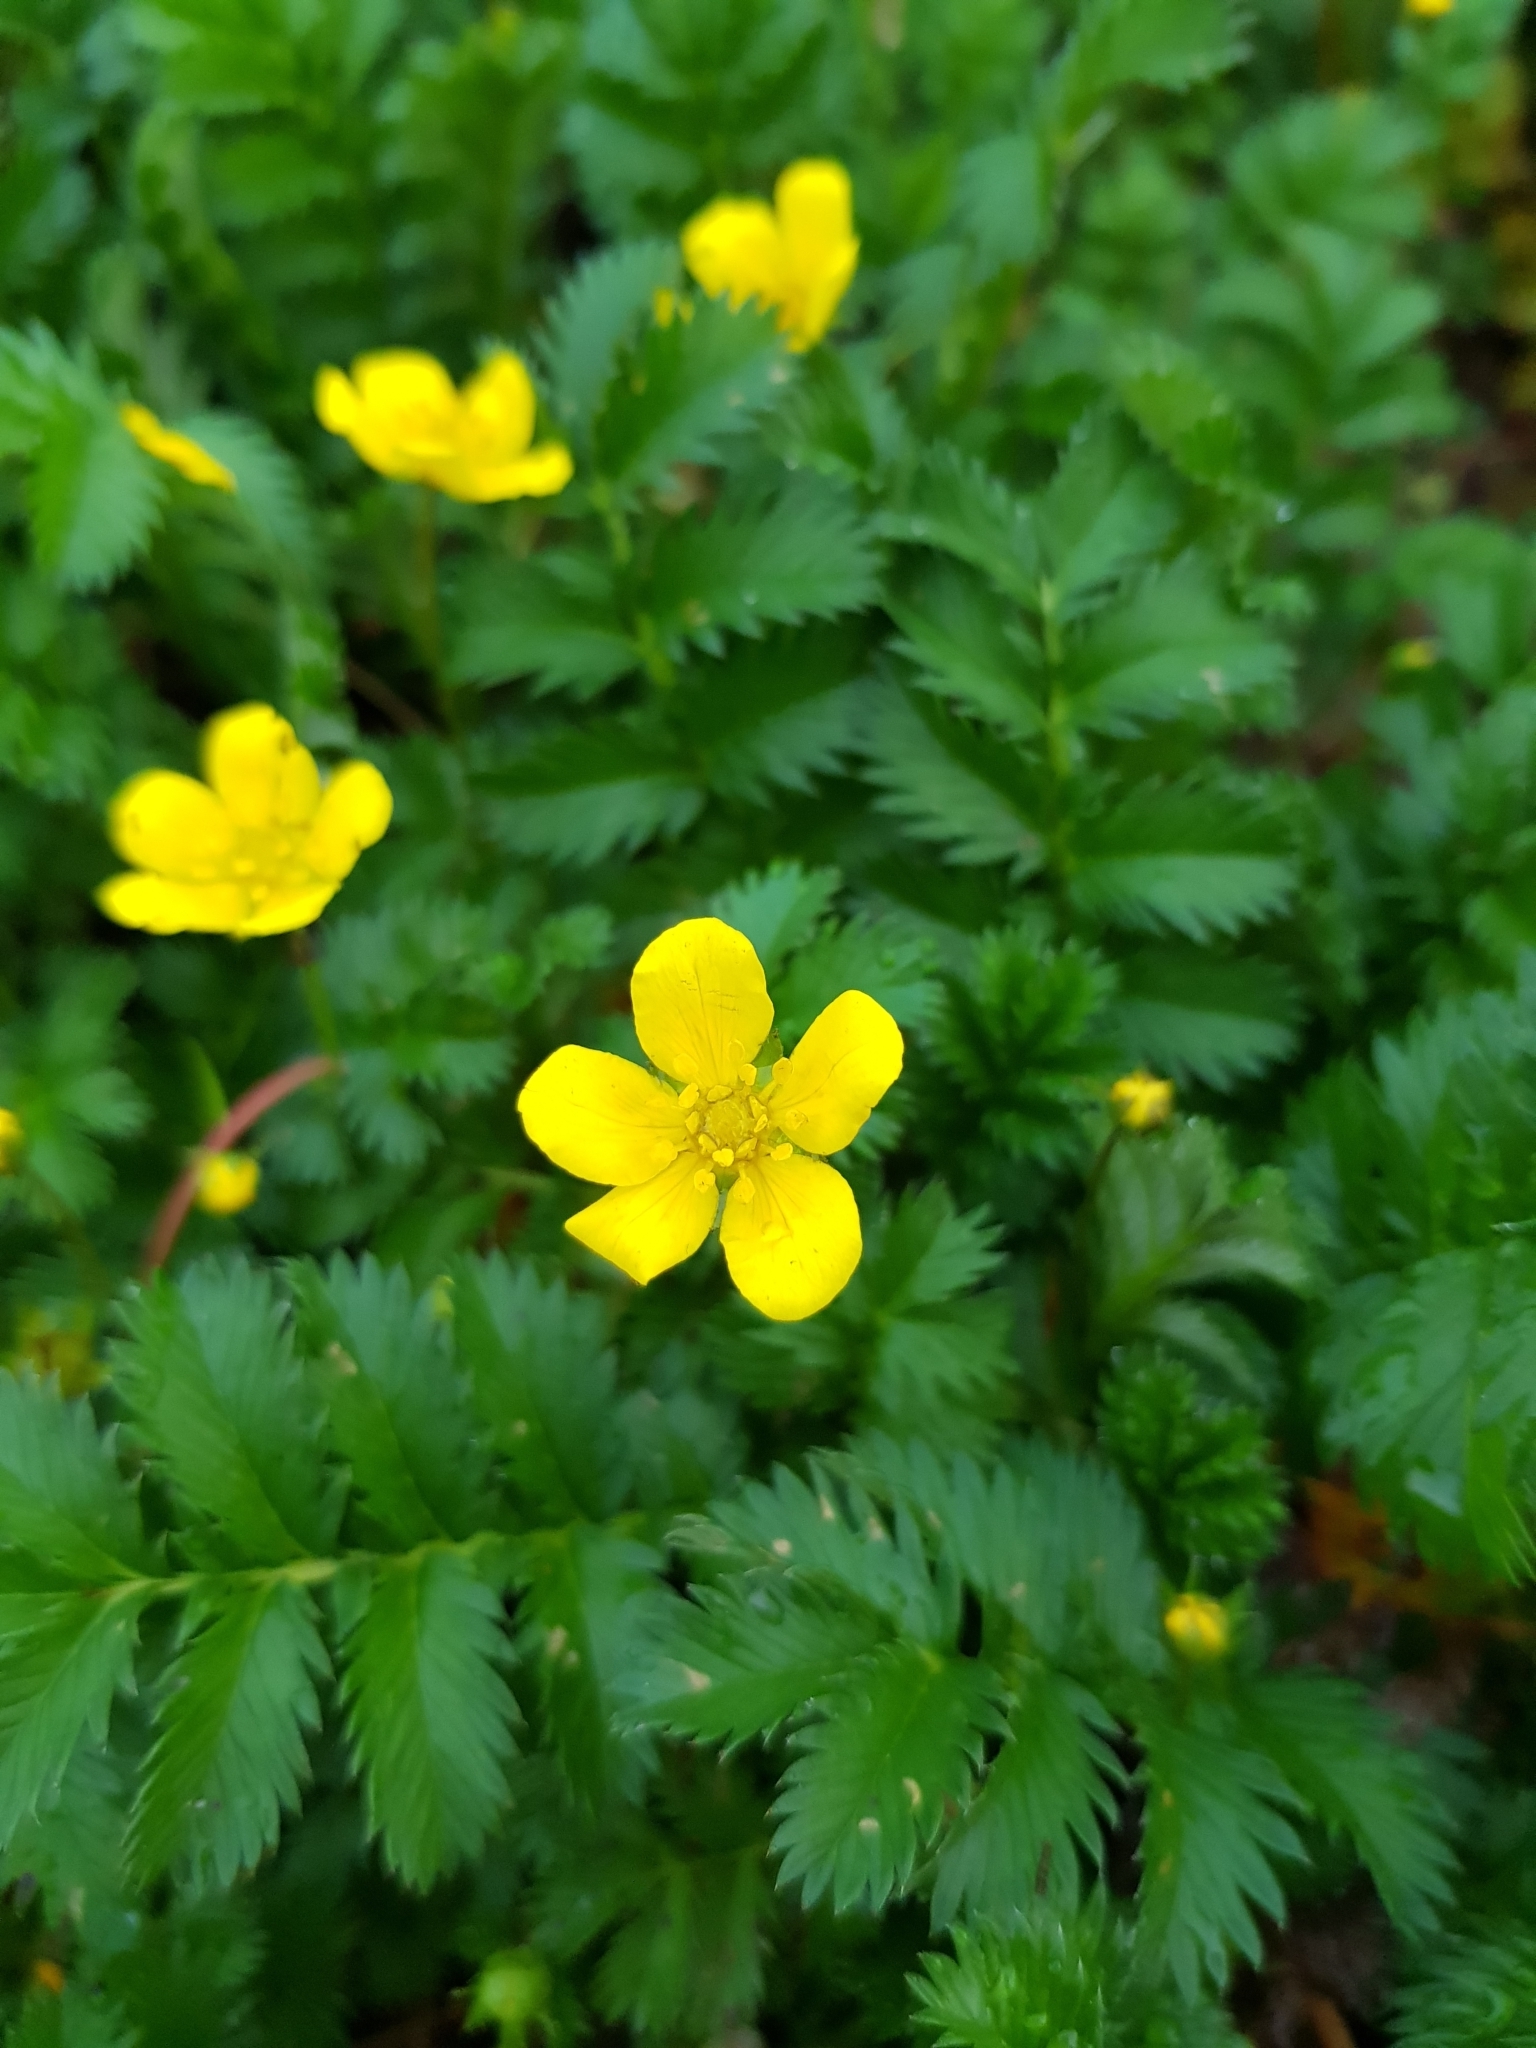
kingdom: Plantae
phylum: Tracheophyta
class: Magnoliopsida
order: Rosales
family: Rosaceae
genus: Argentina
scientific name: Argentina anserina
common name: Common silverweed
